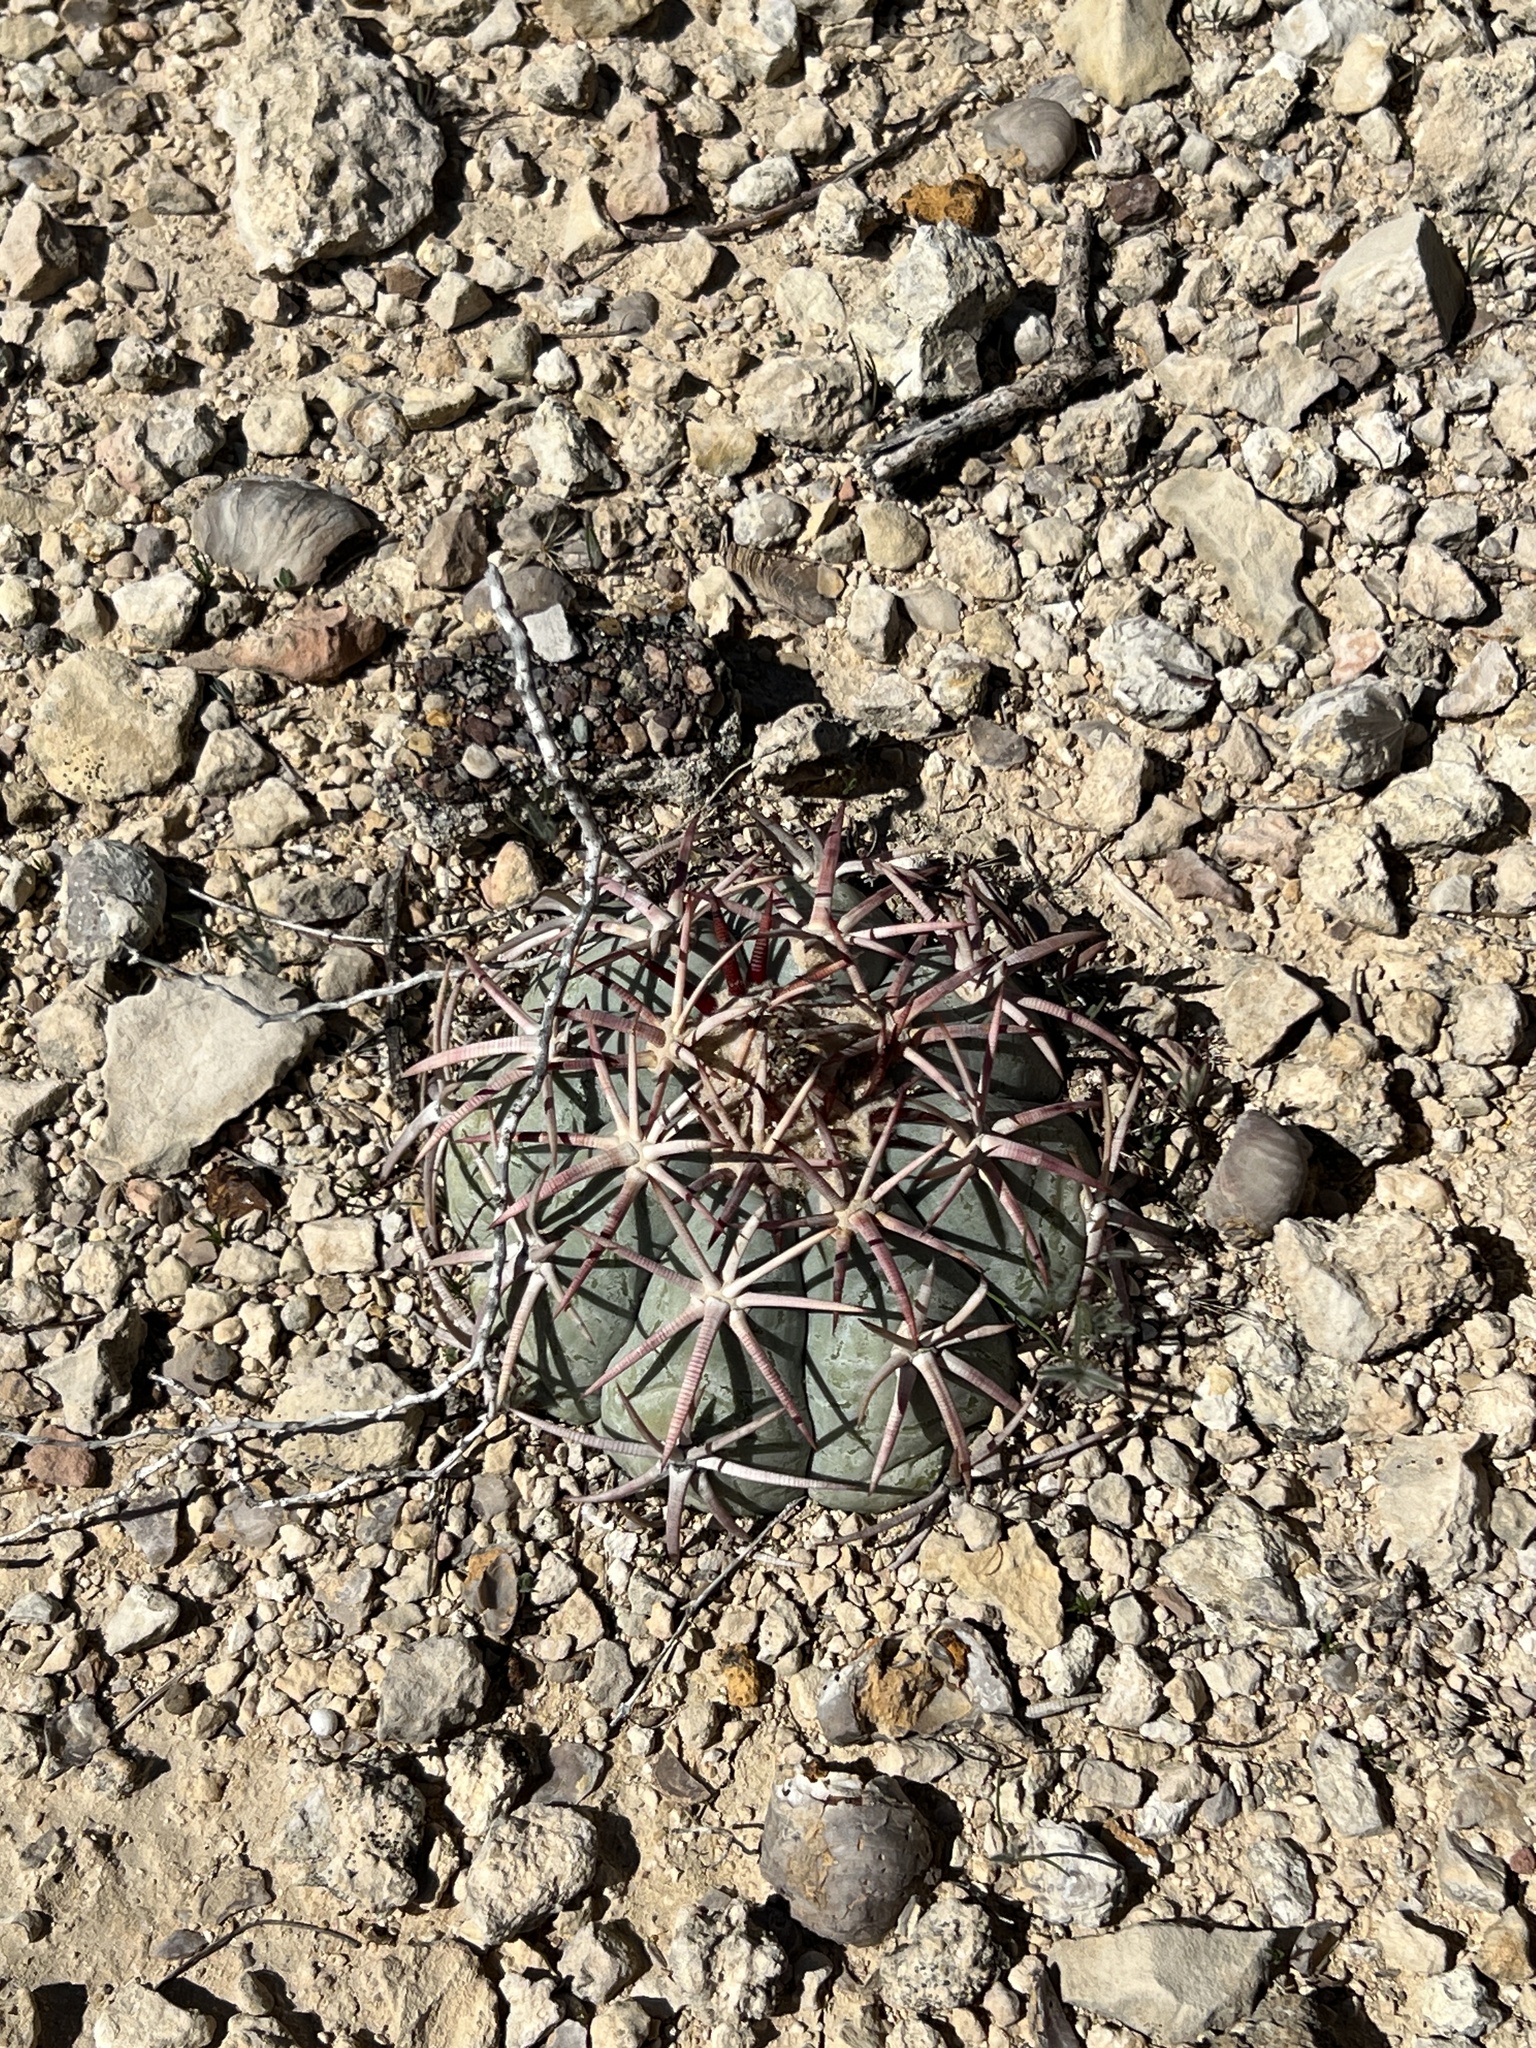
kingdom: Plantae
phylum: Tracheophyta
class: Magnoliopsida
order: Caryophyllales
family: Cactaceae
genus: Echinocactus
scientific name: Echinocactus horizonthalonius
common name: Devilshead
